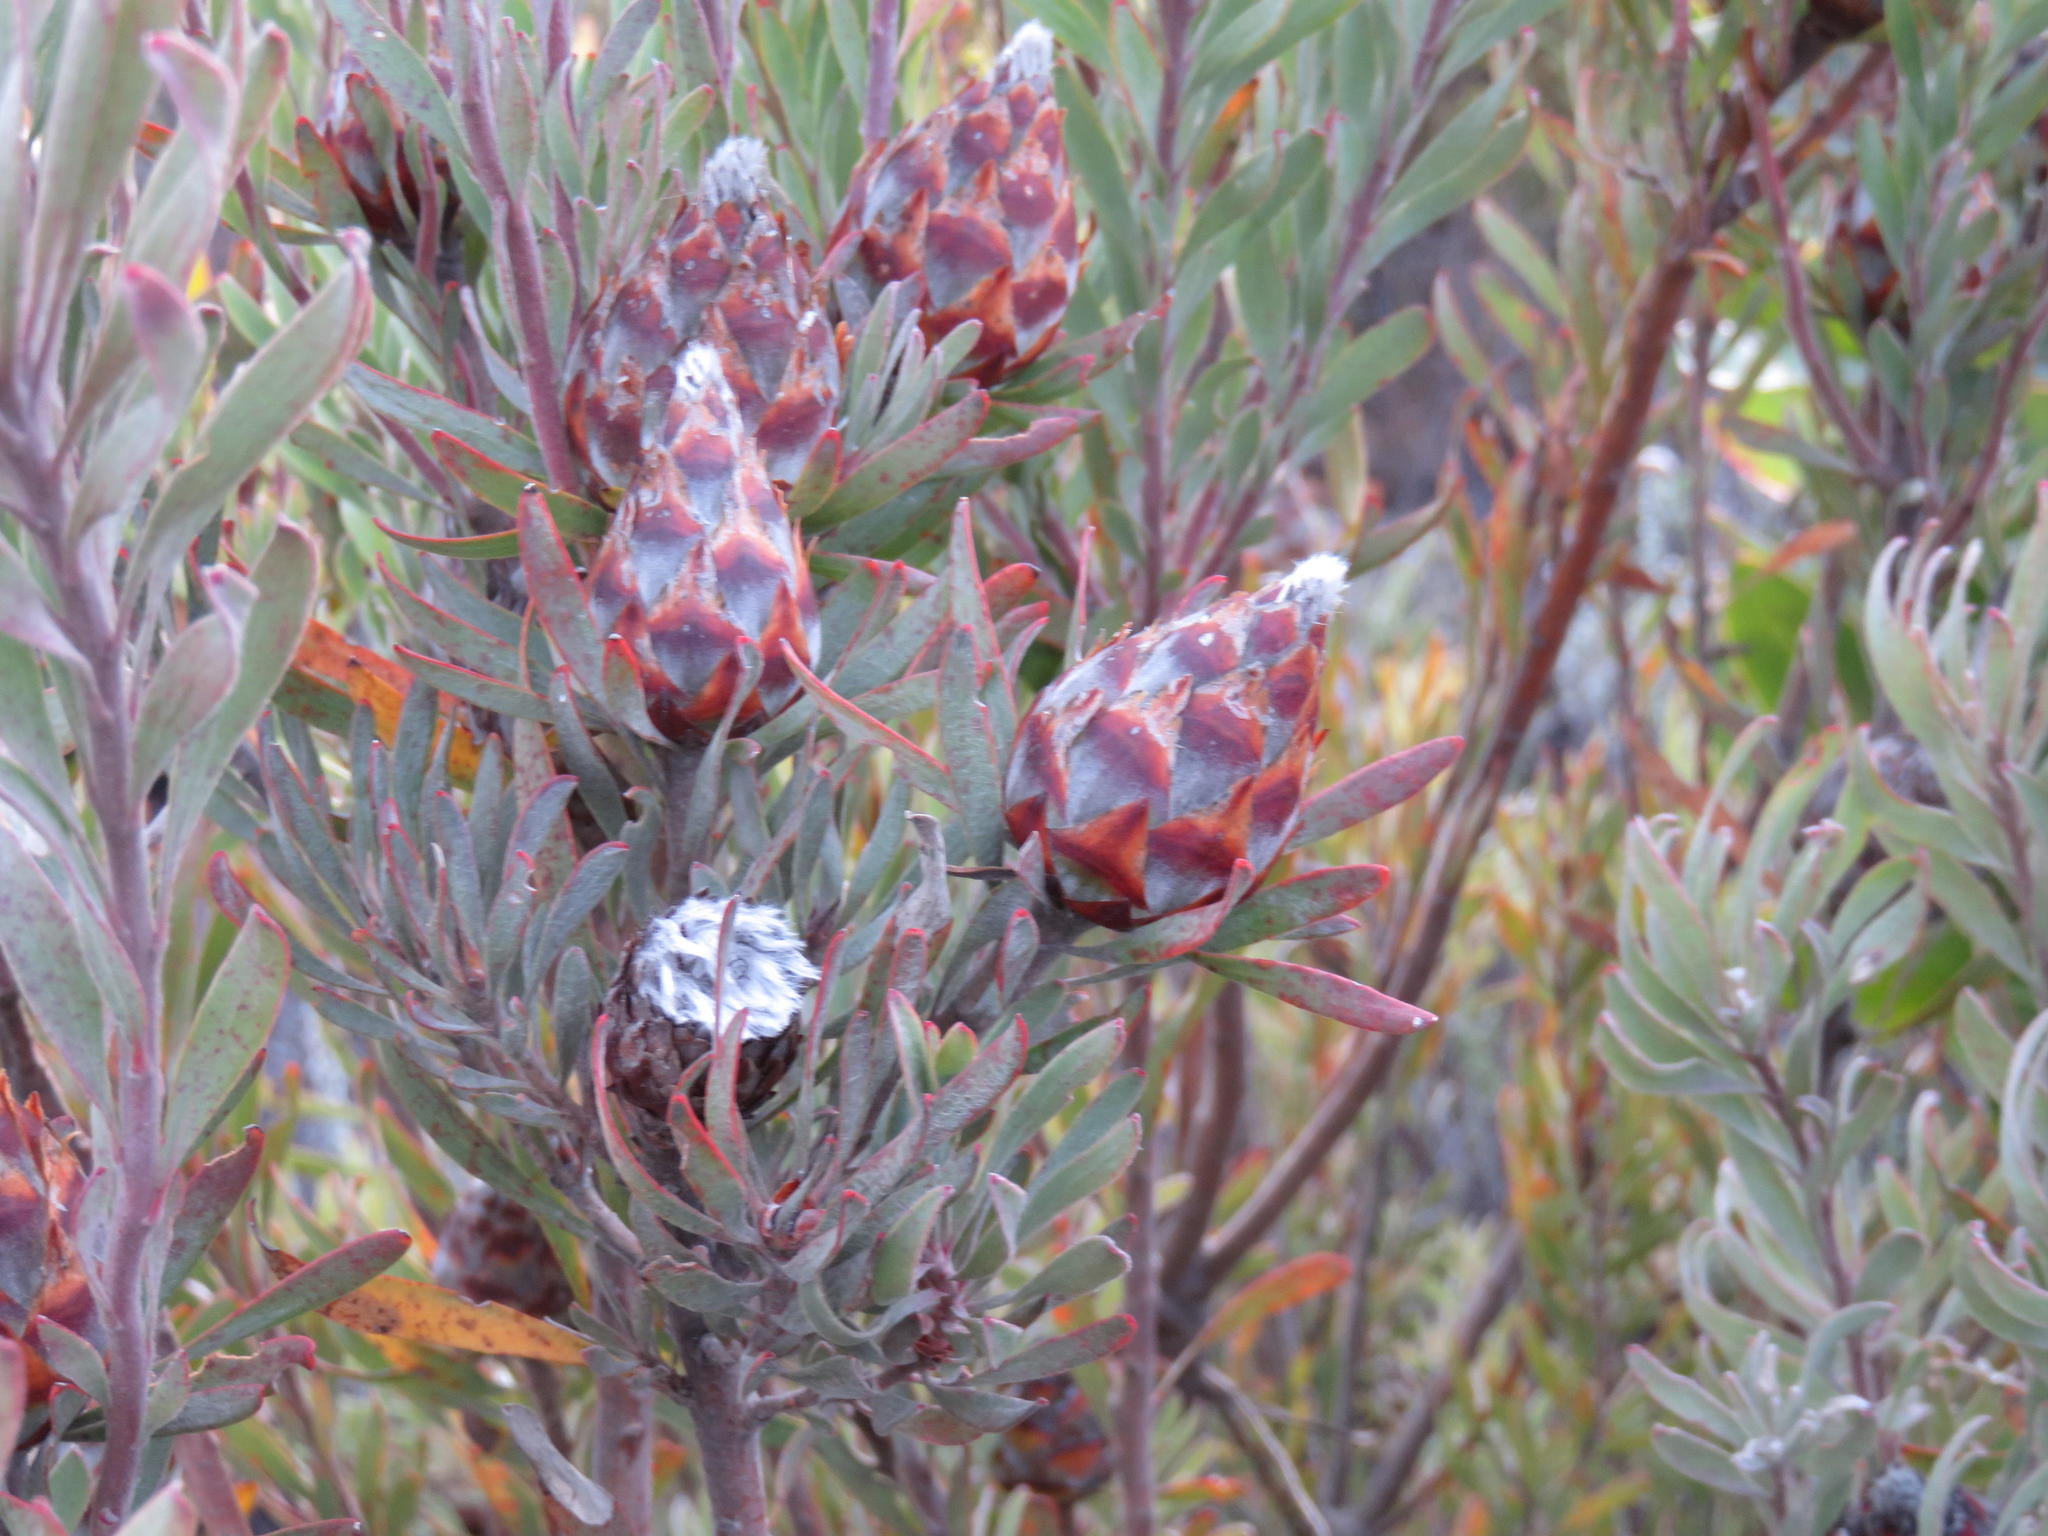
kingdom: Plantae
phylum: Tracheophyta
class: Magnoliopsida
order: Proteales
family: Proteaceae
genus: Leucadendron
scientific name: Leucadendron rubrum
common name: Spinning top
